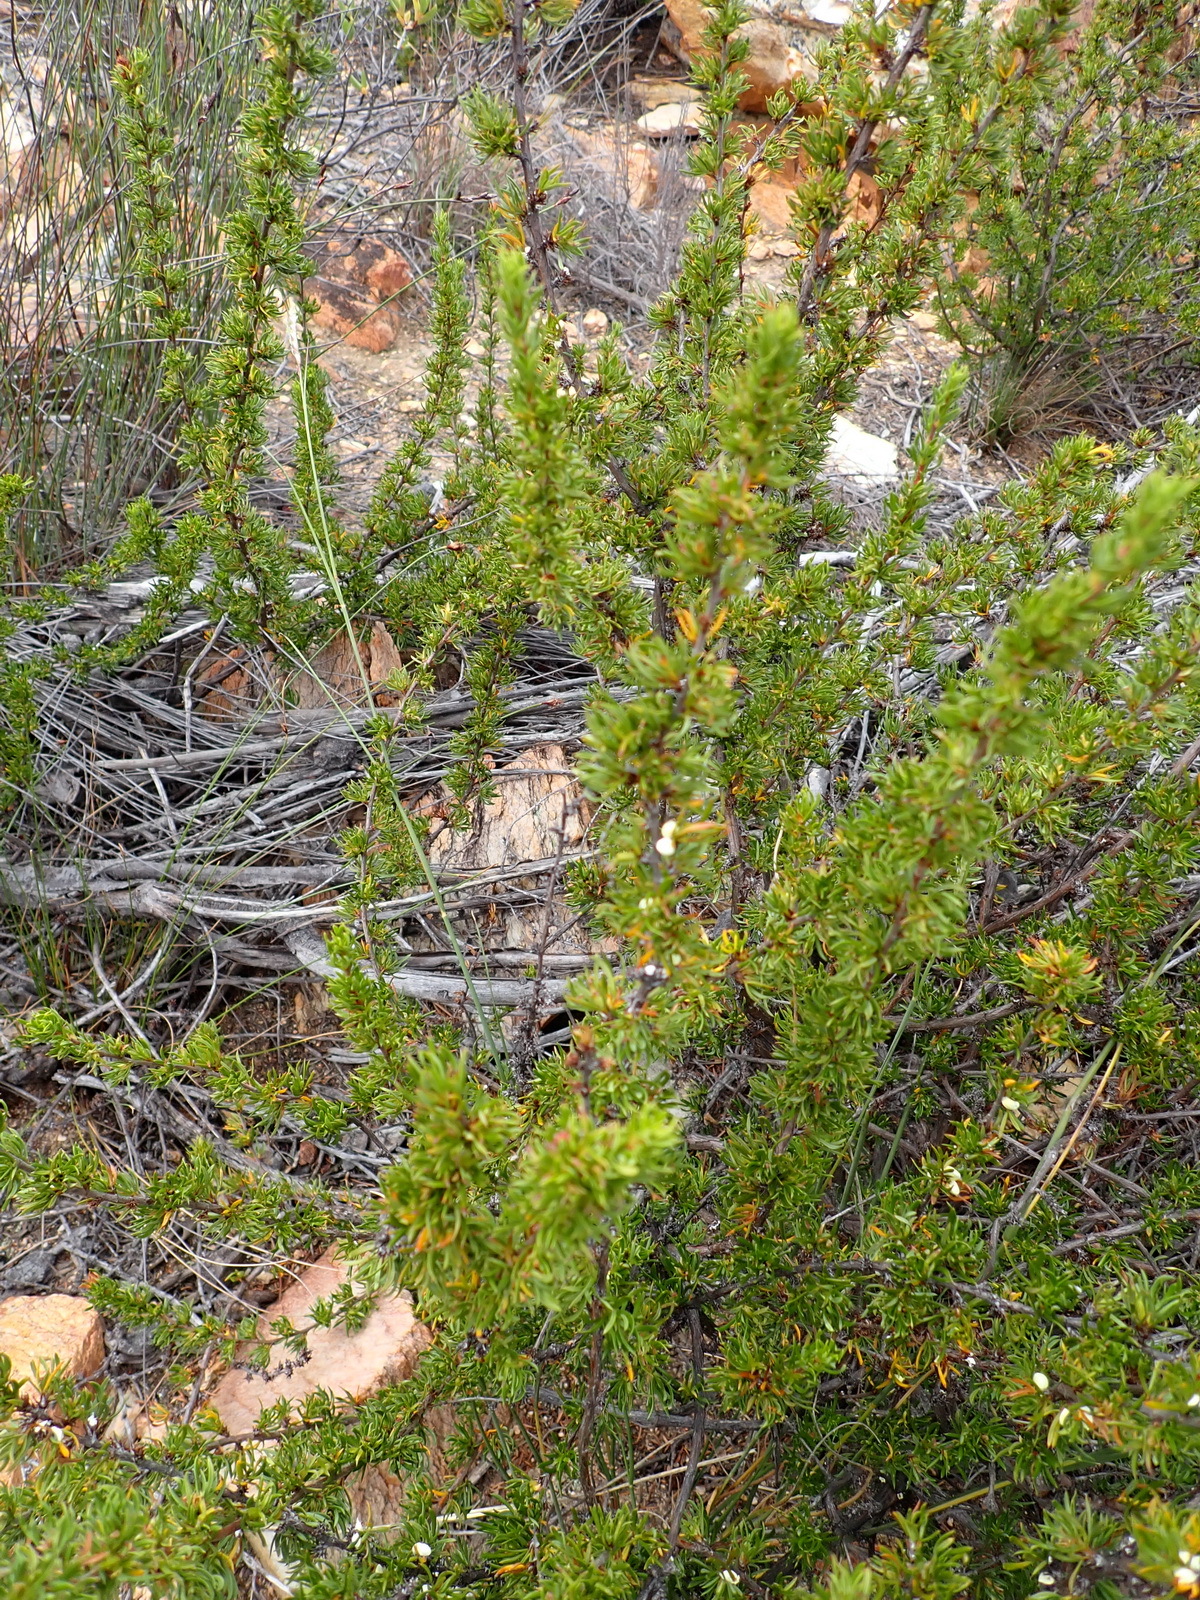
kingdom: Plantae
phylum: Tracheophyta
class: Magnoliopsida
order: Rosales
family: Rosaceae
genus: Cliffortia
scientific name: Cliffortia arcuata
